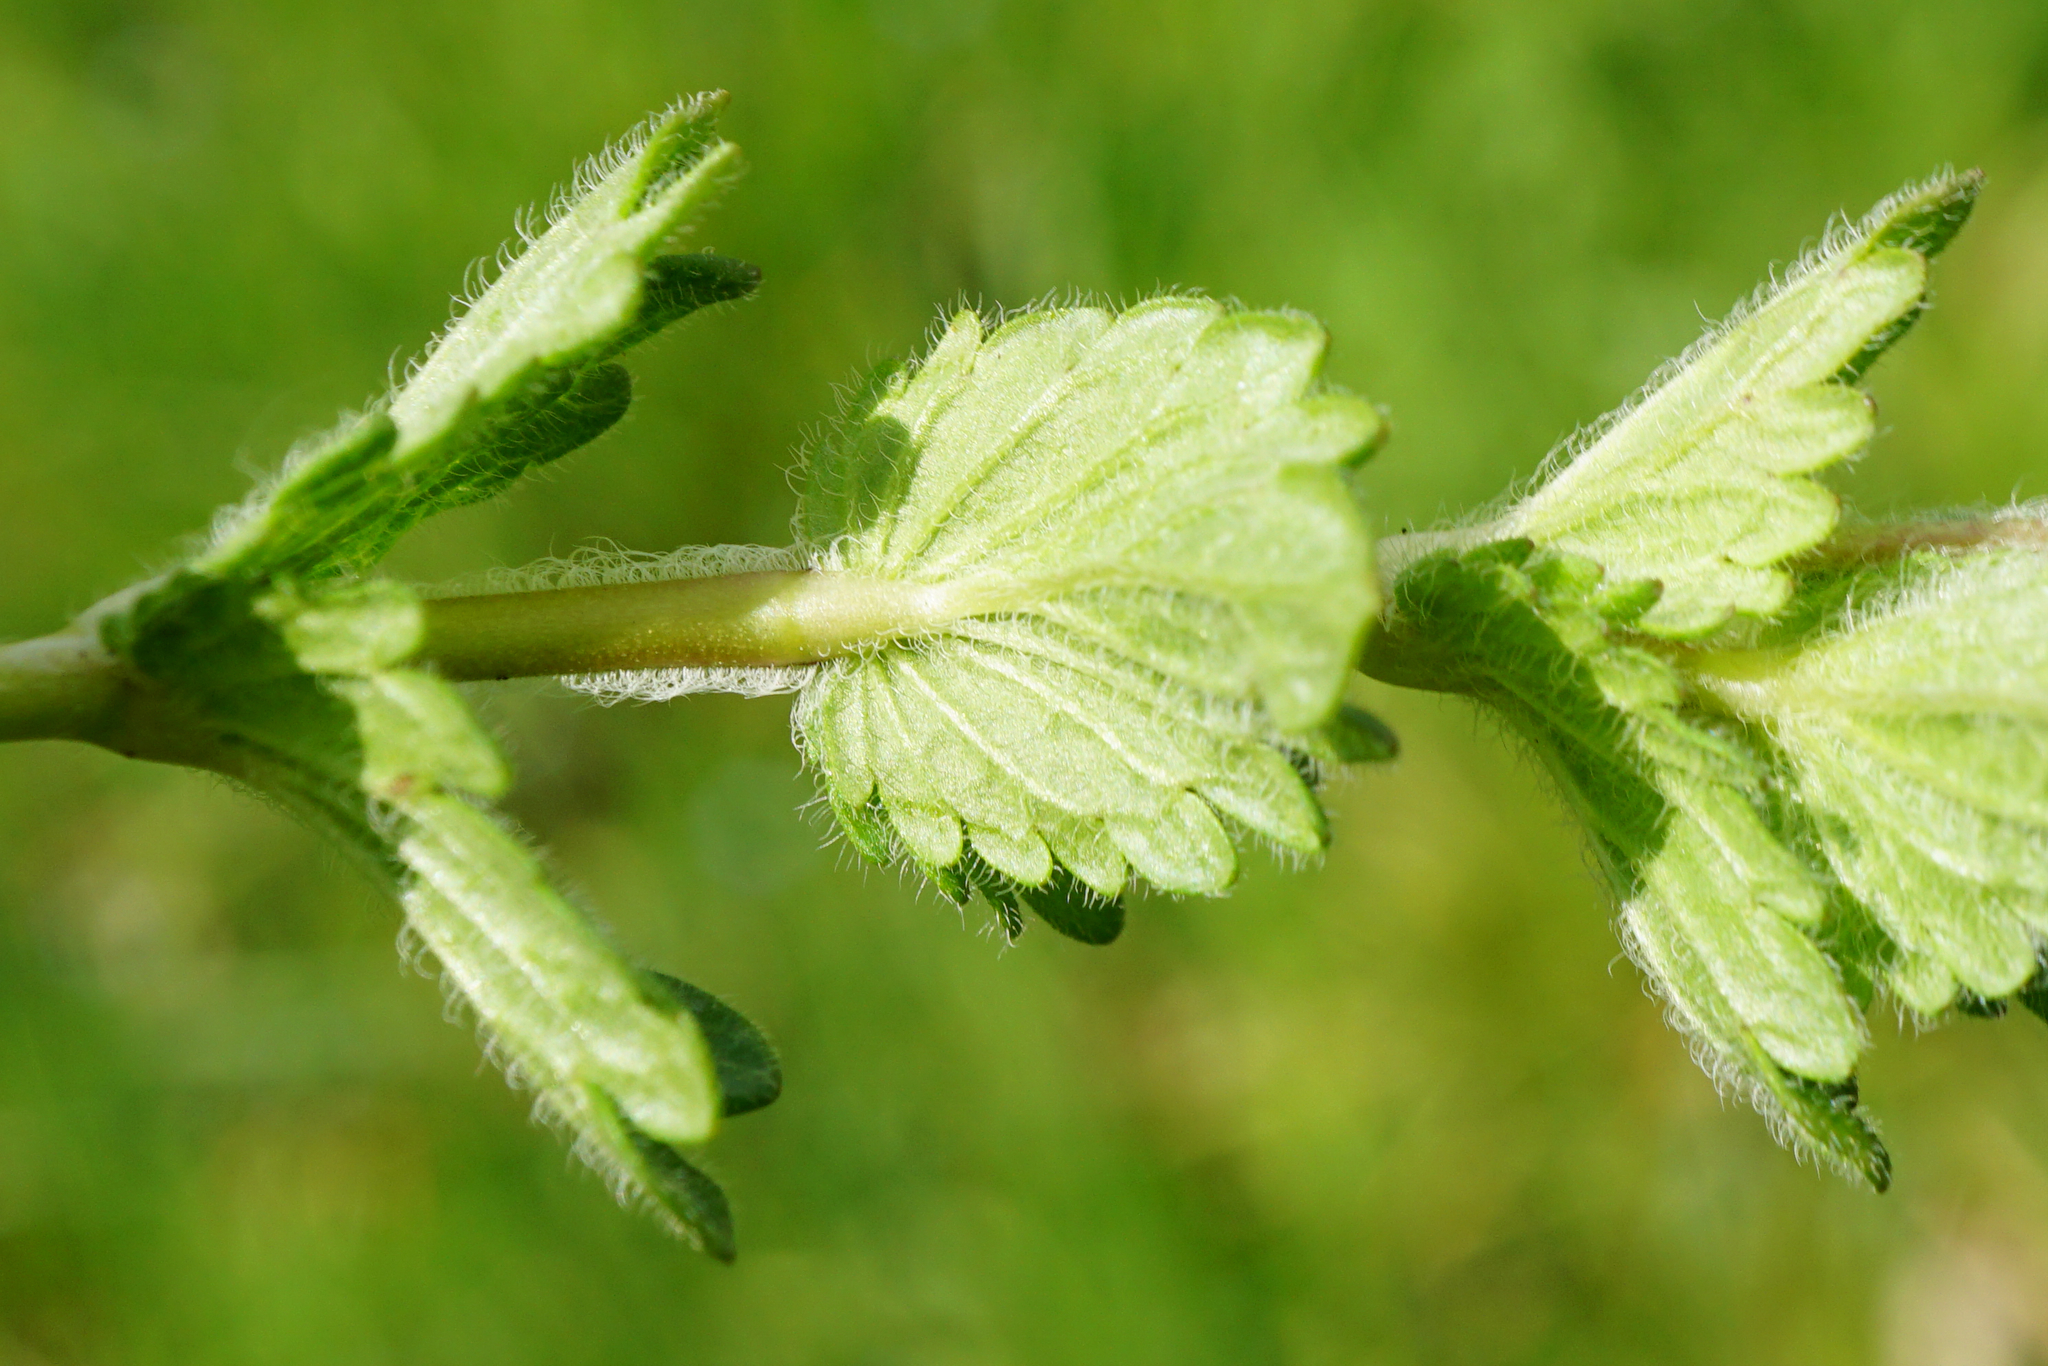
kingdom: Plantae
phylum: Tracheophyta
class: Magnoliopsida
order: Lamiales
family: Plantaginaceae
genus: Veronica
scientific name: Veronica vindobonensis
